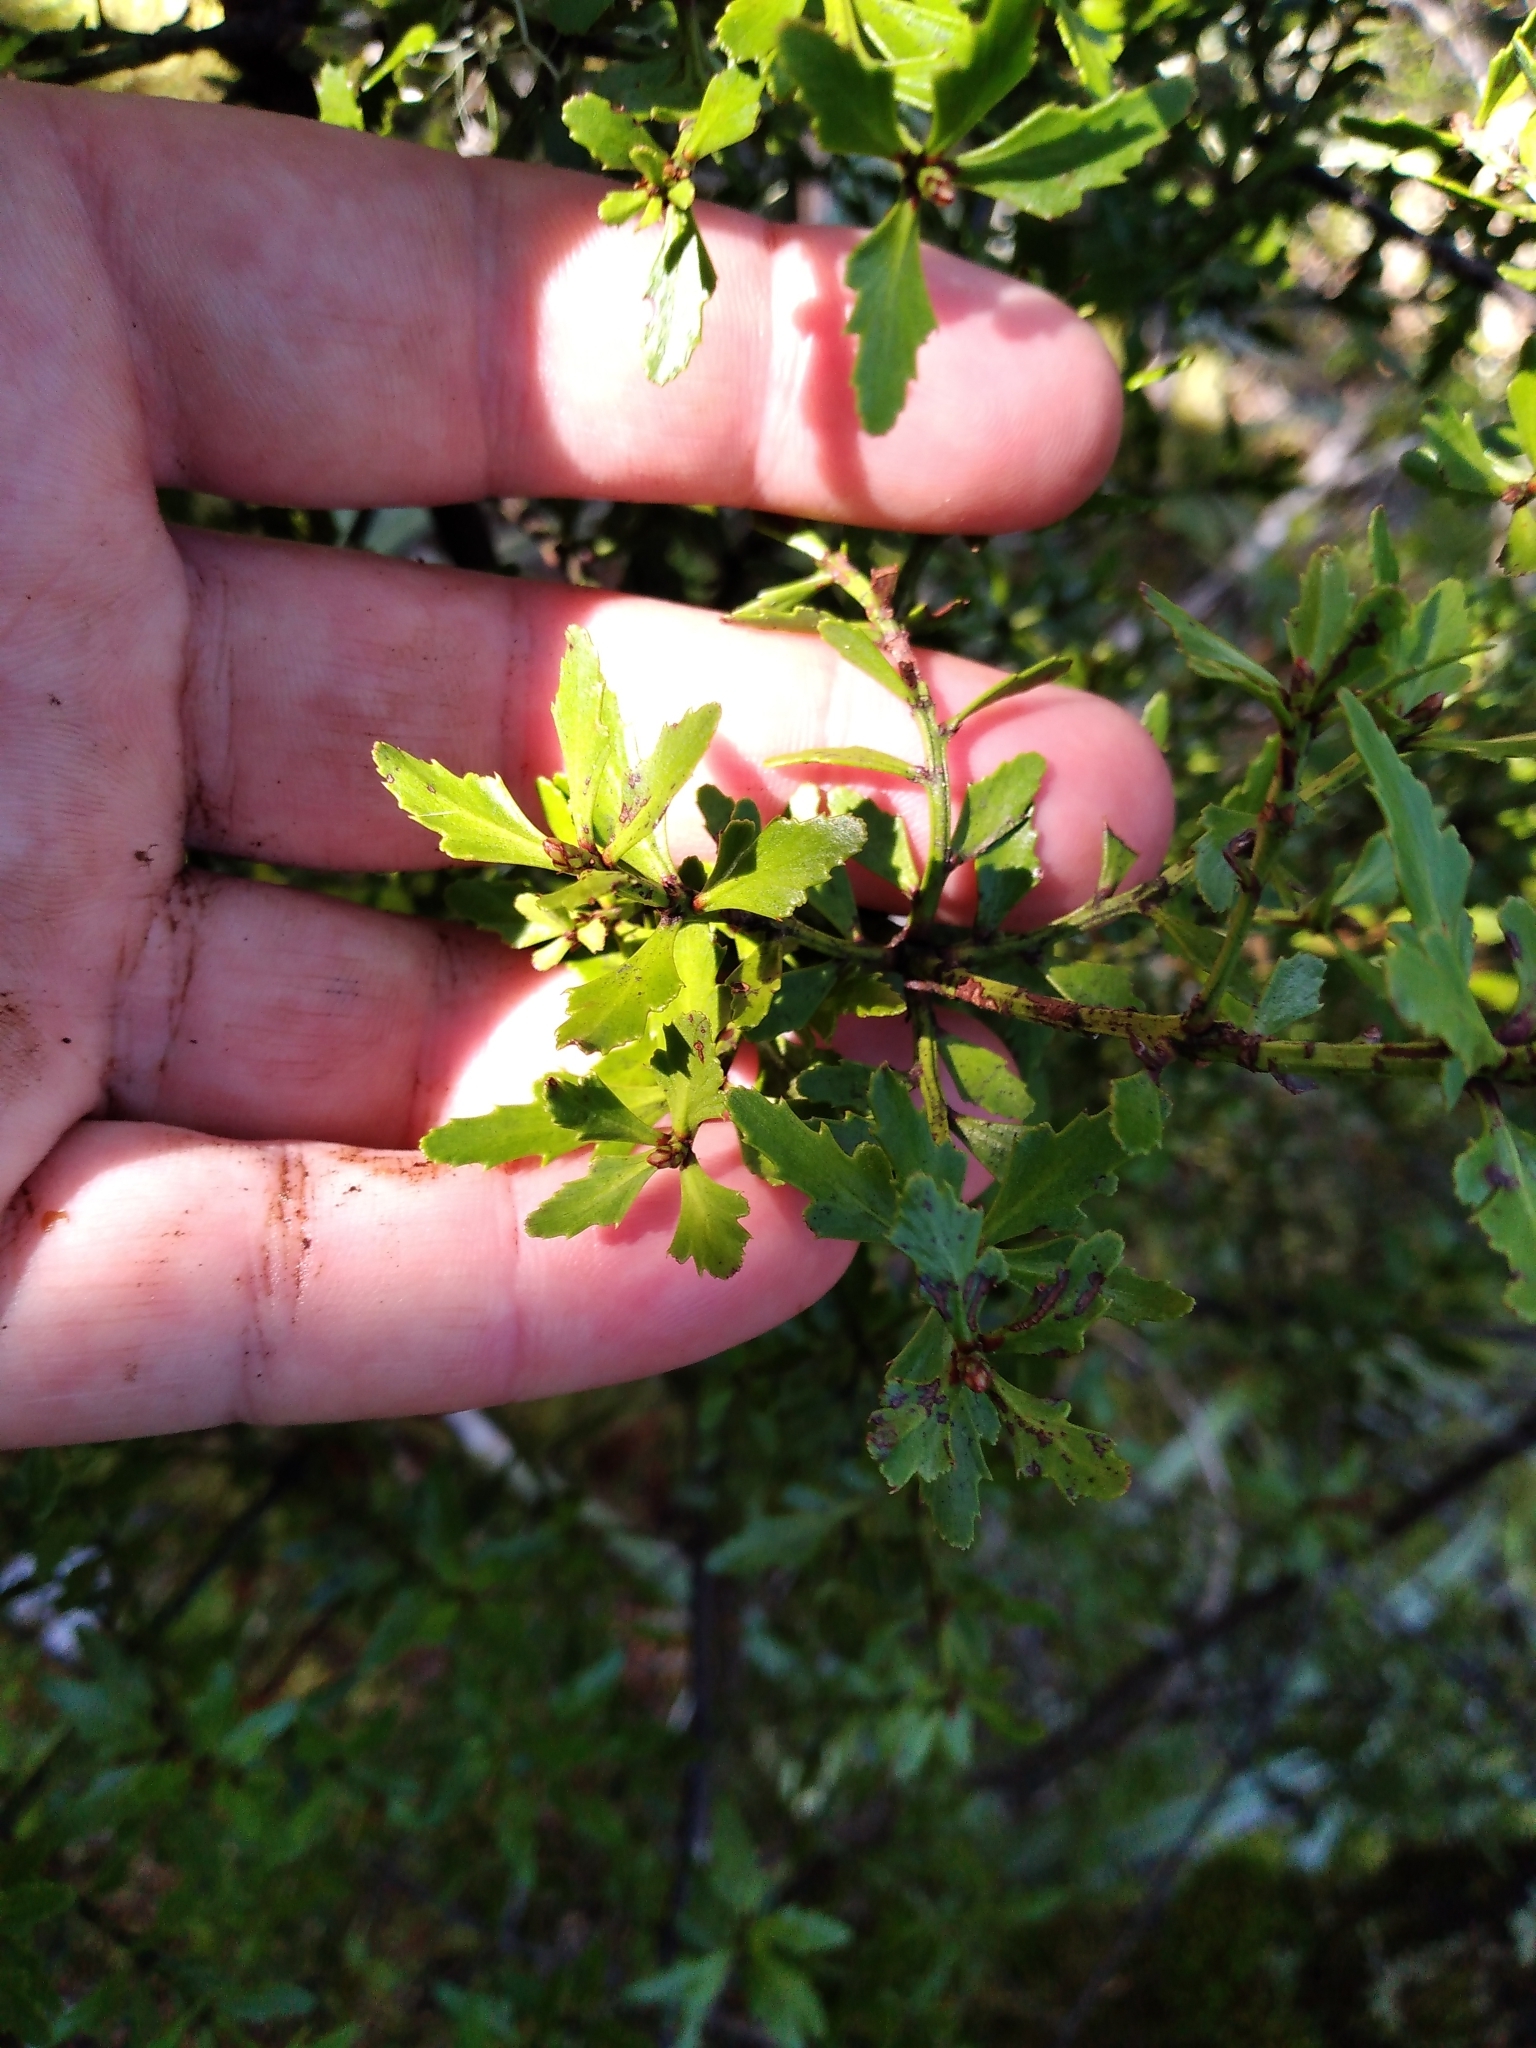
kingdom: Plantae
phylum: Tracheophyta
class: Pinopsida
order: Pinales
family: Phyllocladaceae
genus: Phyllocladus
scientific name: Phyllocladus trichomanoides
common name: Celery pine
